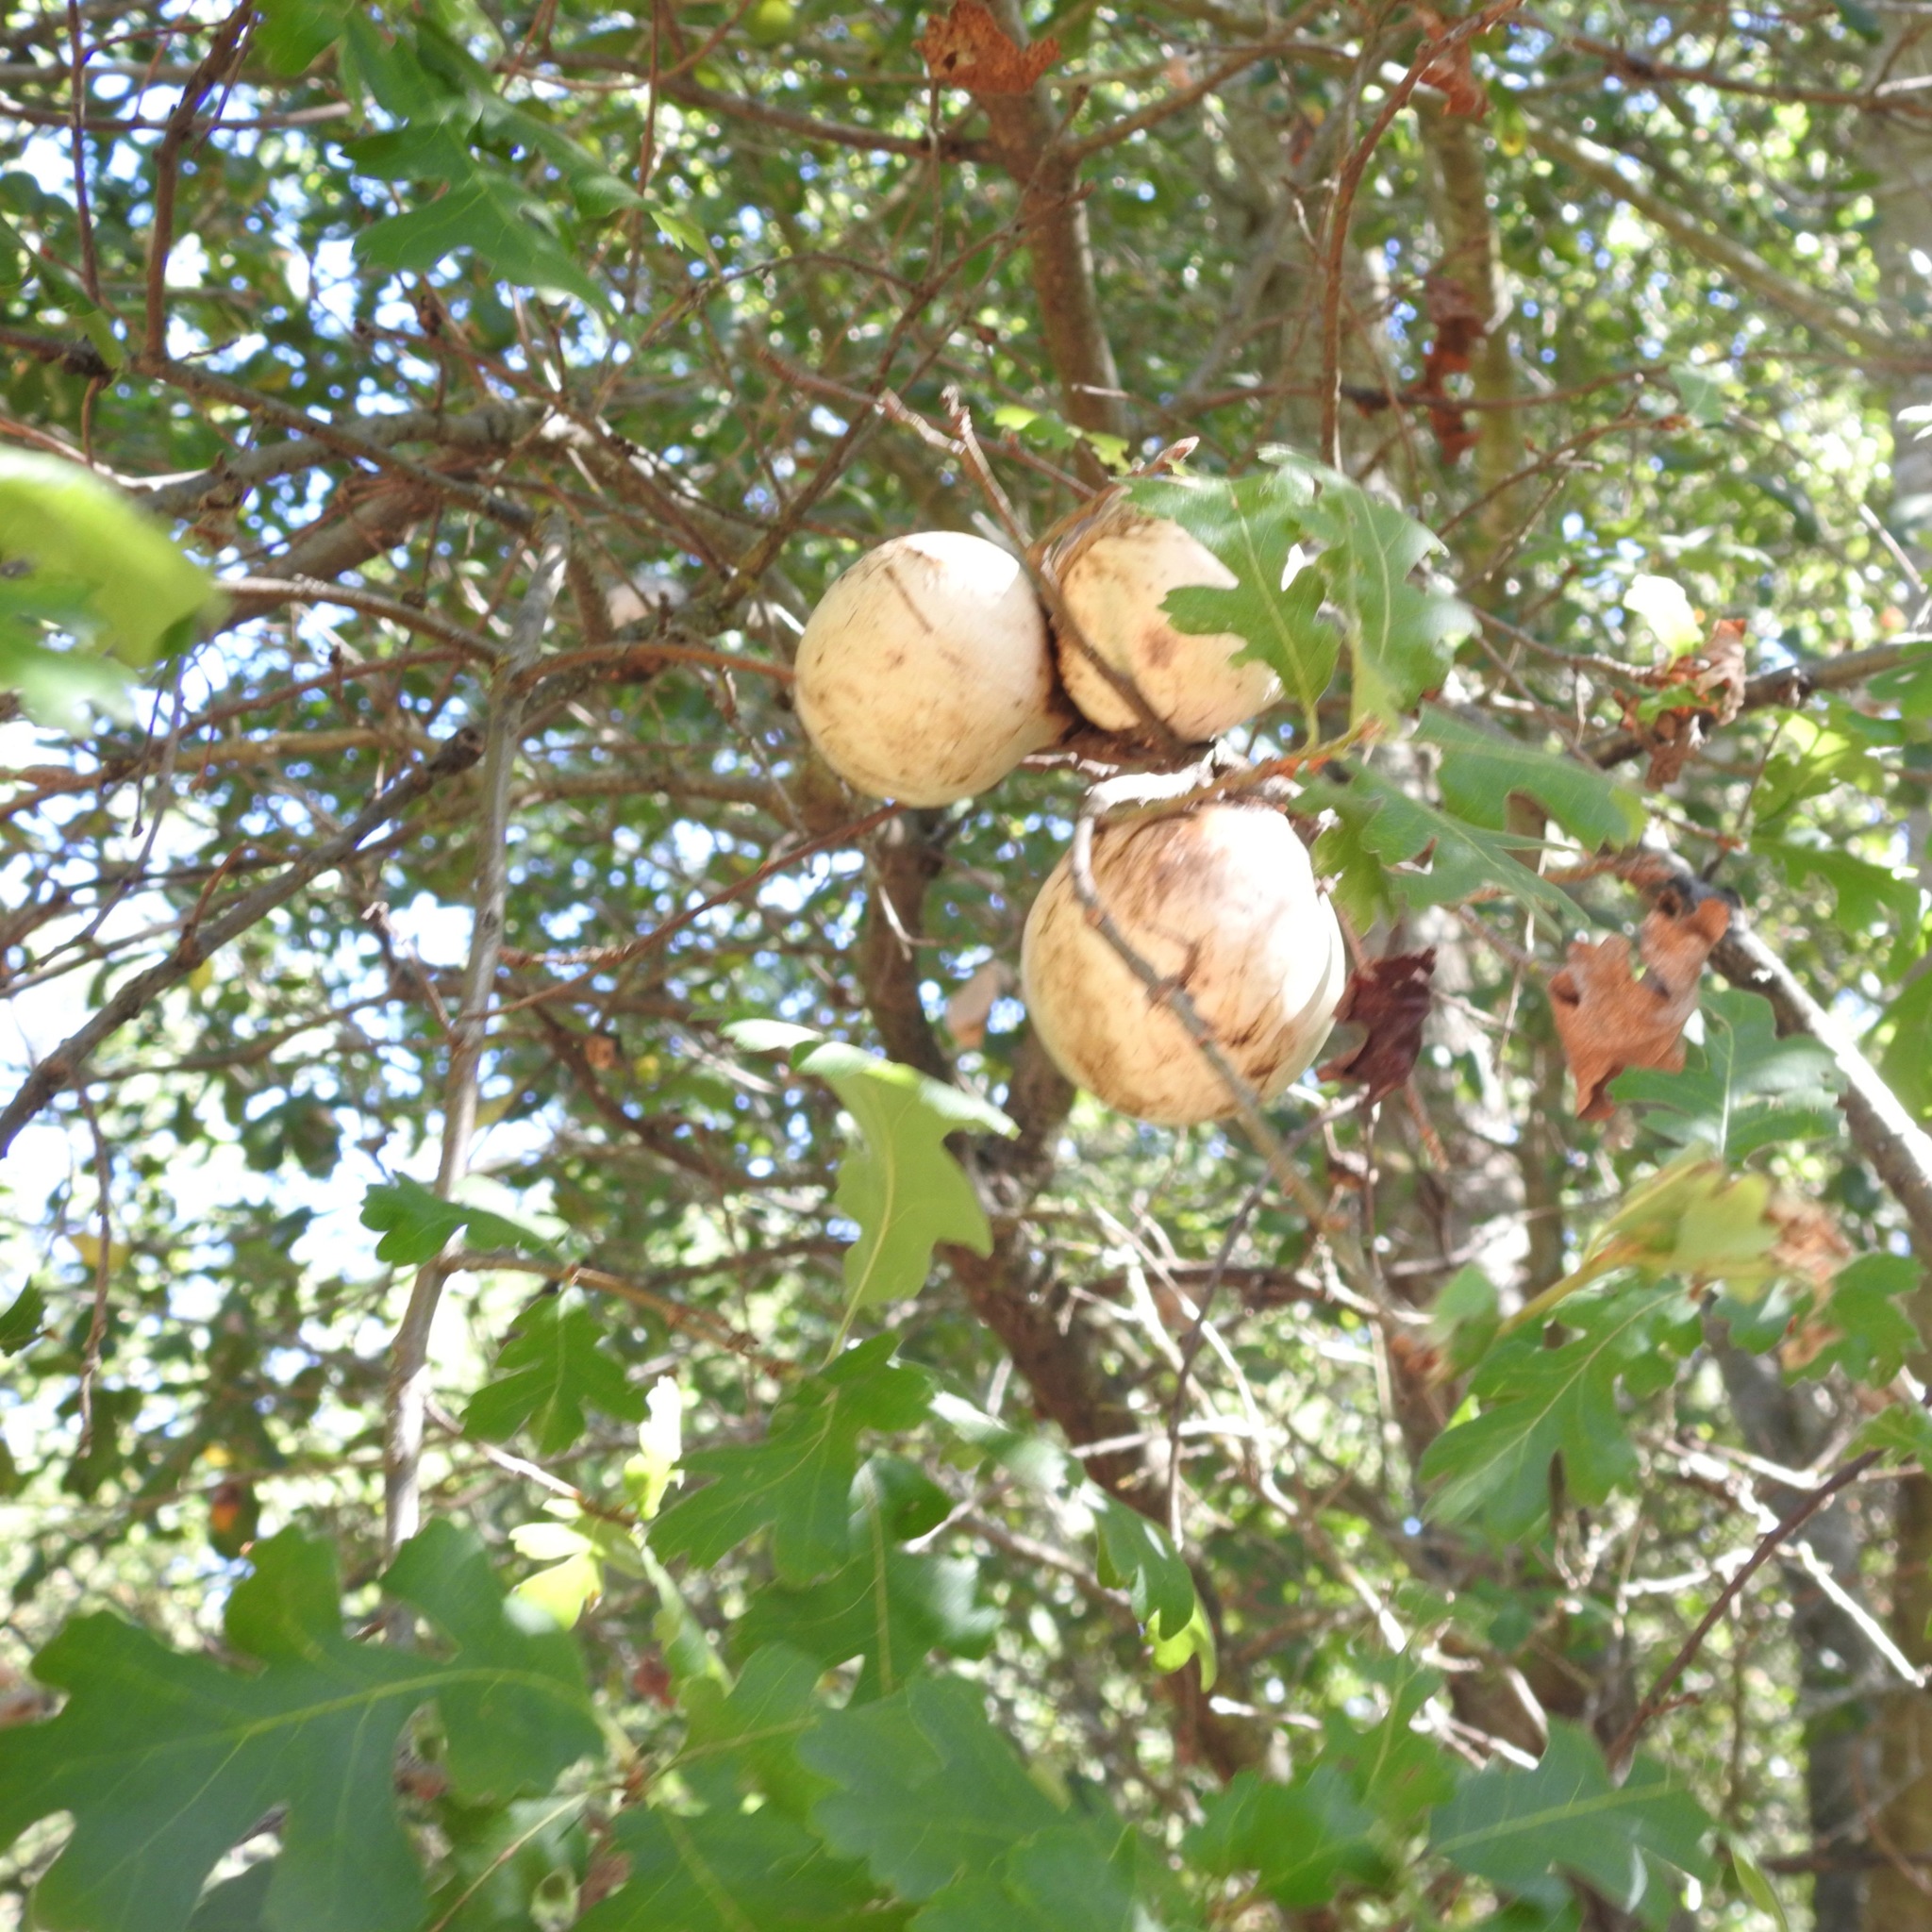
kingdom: Animalia
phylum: Arthropoda
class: Insecta
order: Hymenoptera
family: Cynipidae
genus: Andricus
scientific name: Andricus quercuscalifornicus
